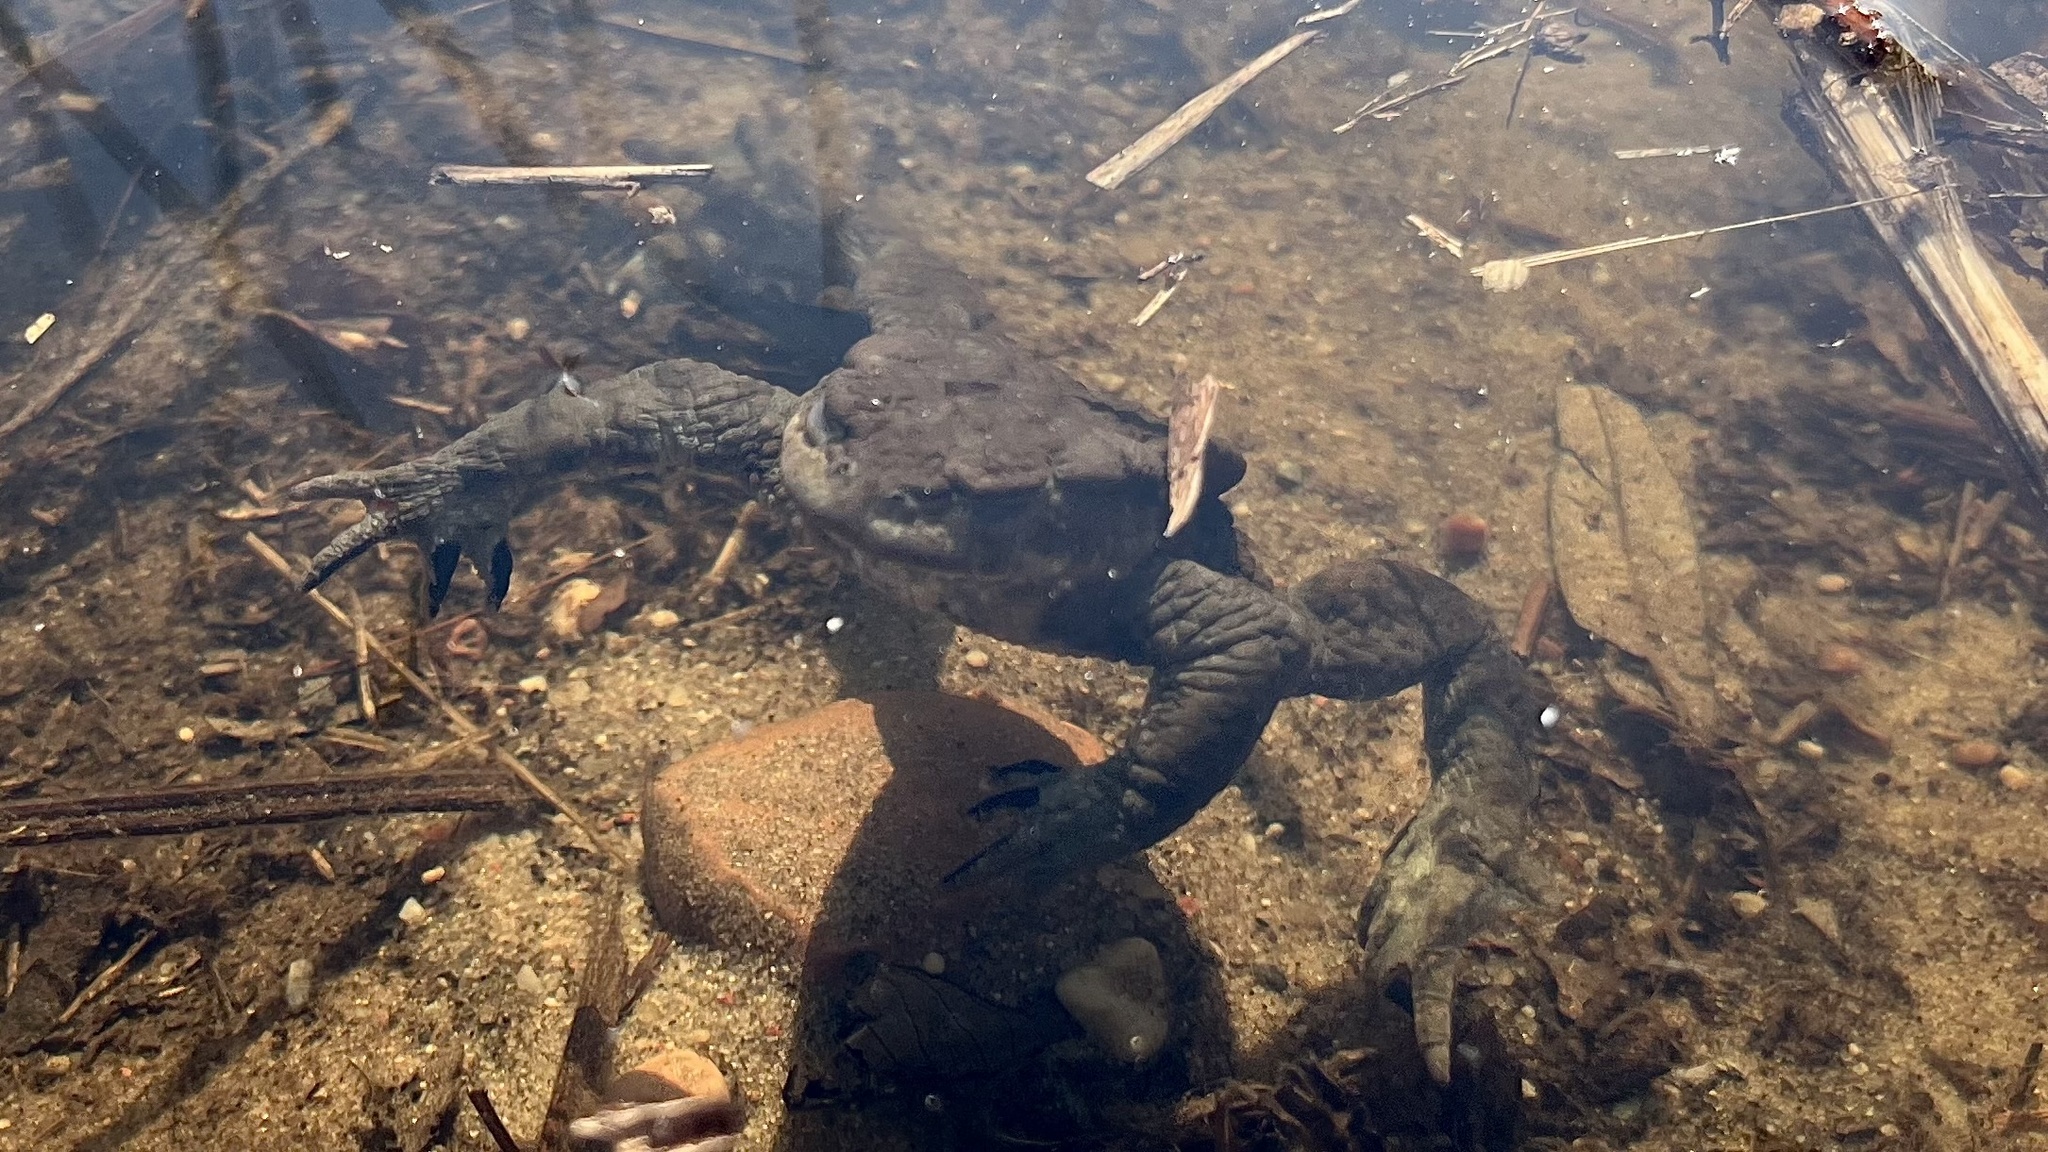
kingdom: Animalia
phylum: Chordata
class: Amphibia
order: Anura
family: Bufonidae
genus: Bufo
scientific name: Bufo bufo
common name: Common toad
